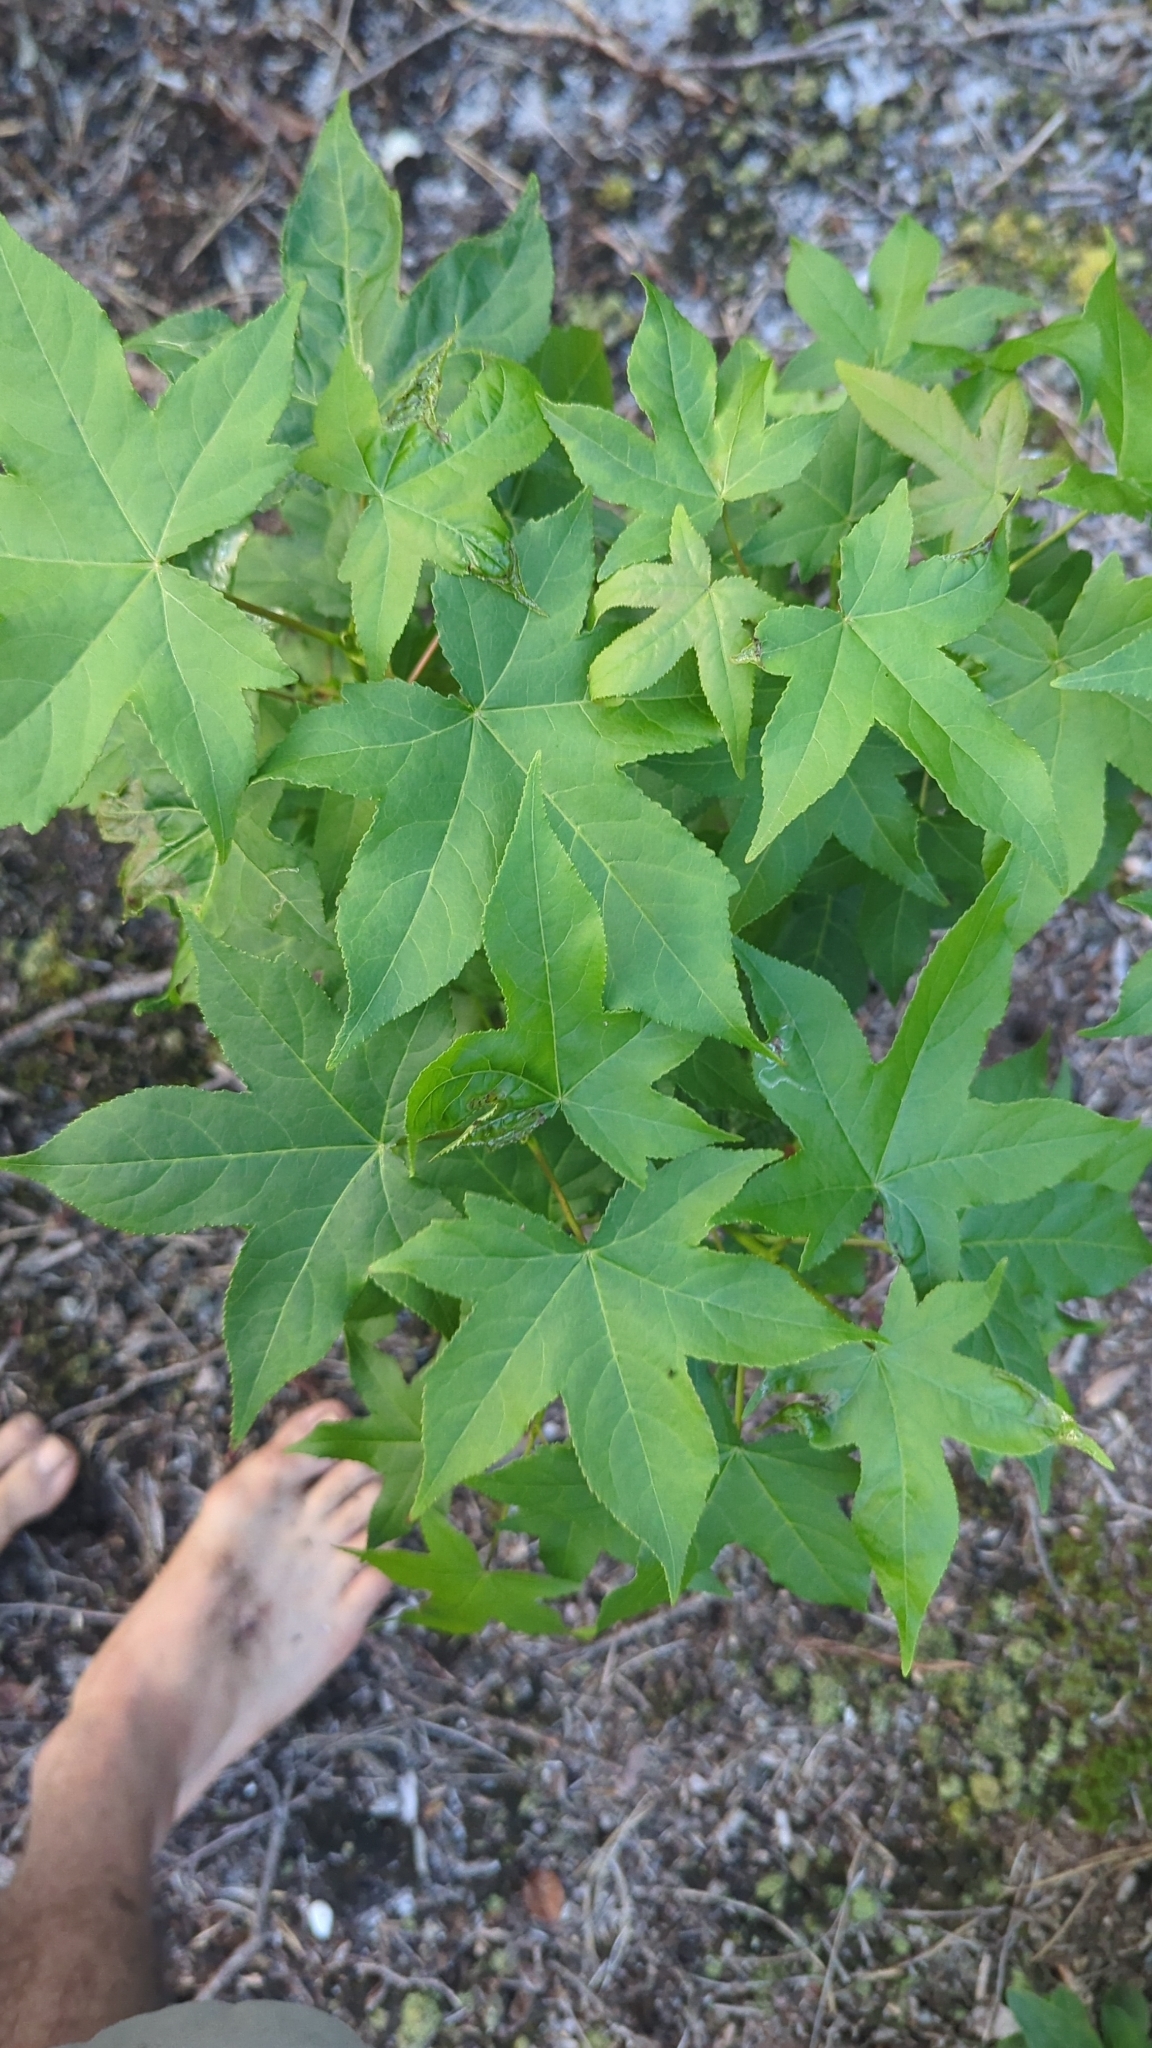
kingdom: Plantae
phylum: Tracheophyta
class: Magnoliopsida
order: Saxifragales
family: Altingiaceae
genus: Liquidambar
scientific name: Liquidambar styraciflua
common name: Sweet gum
